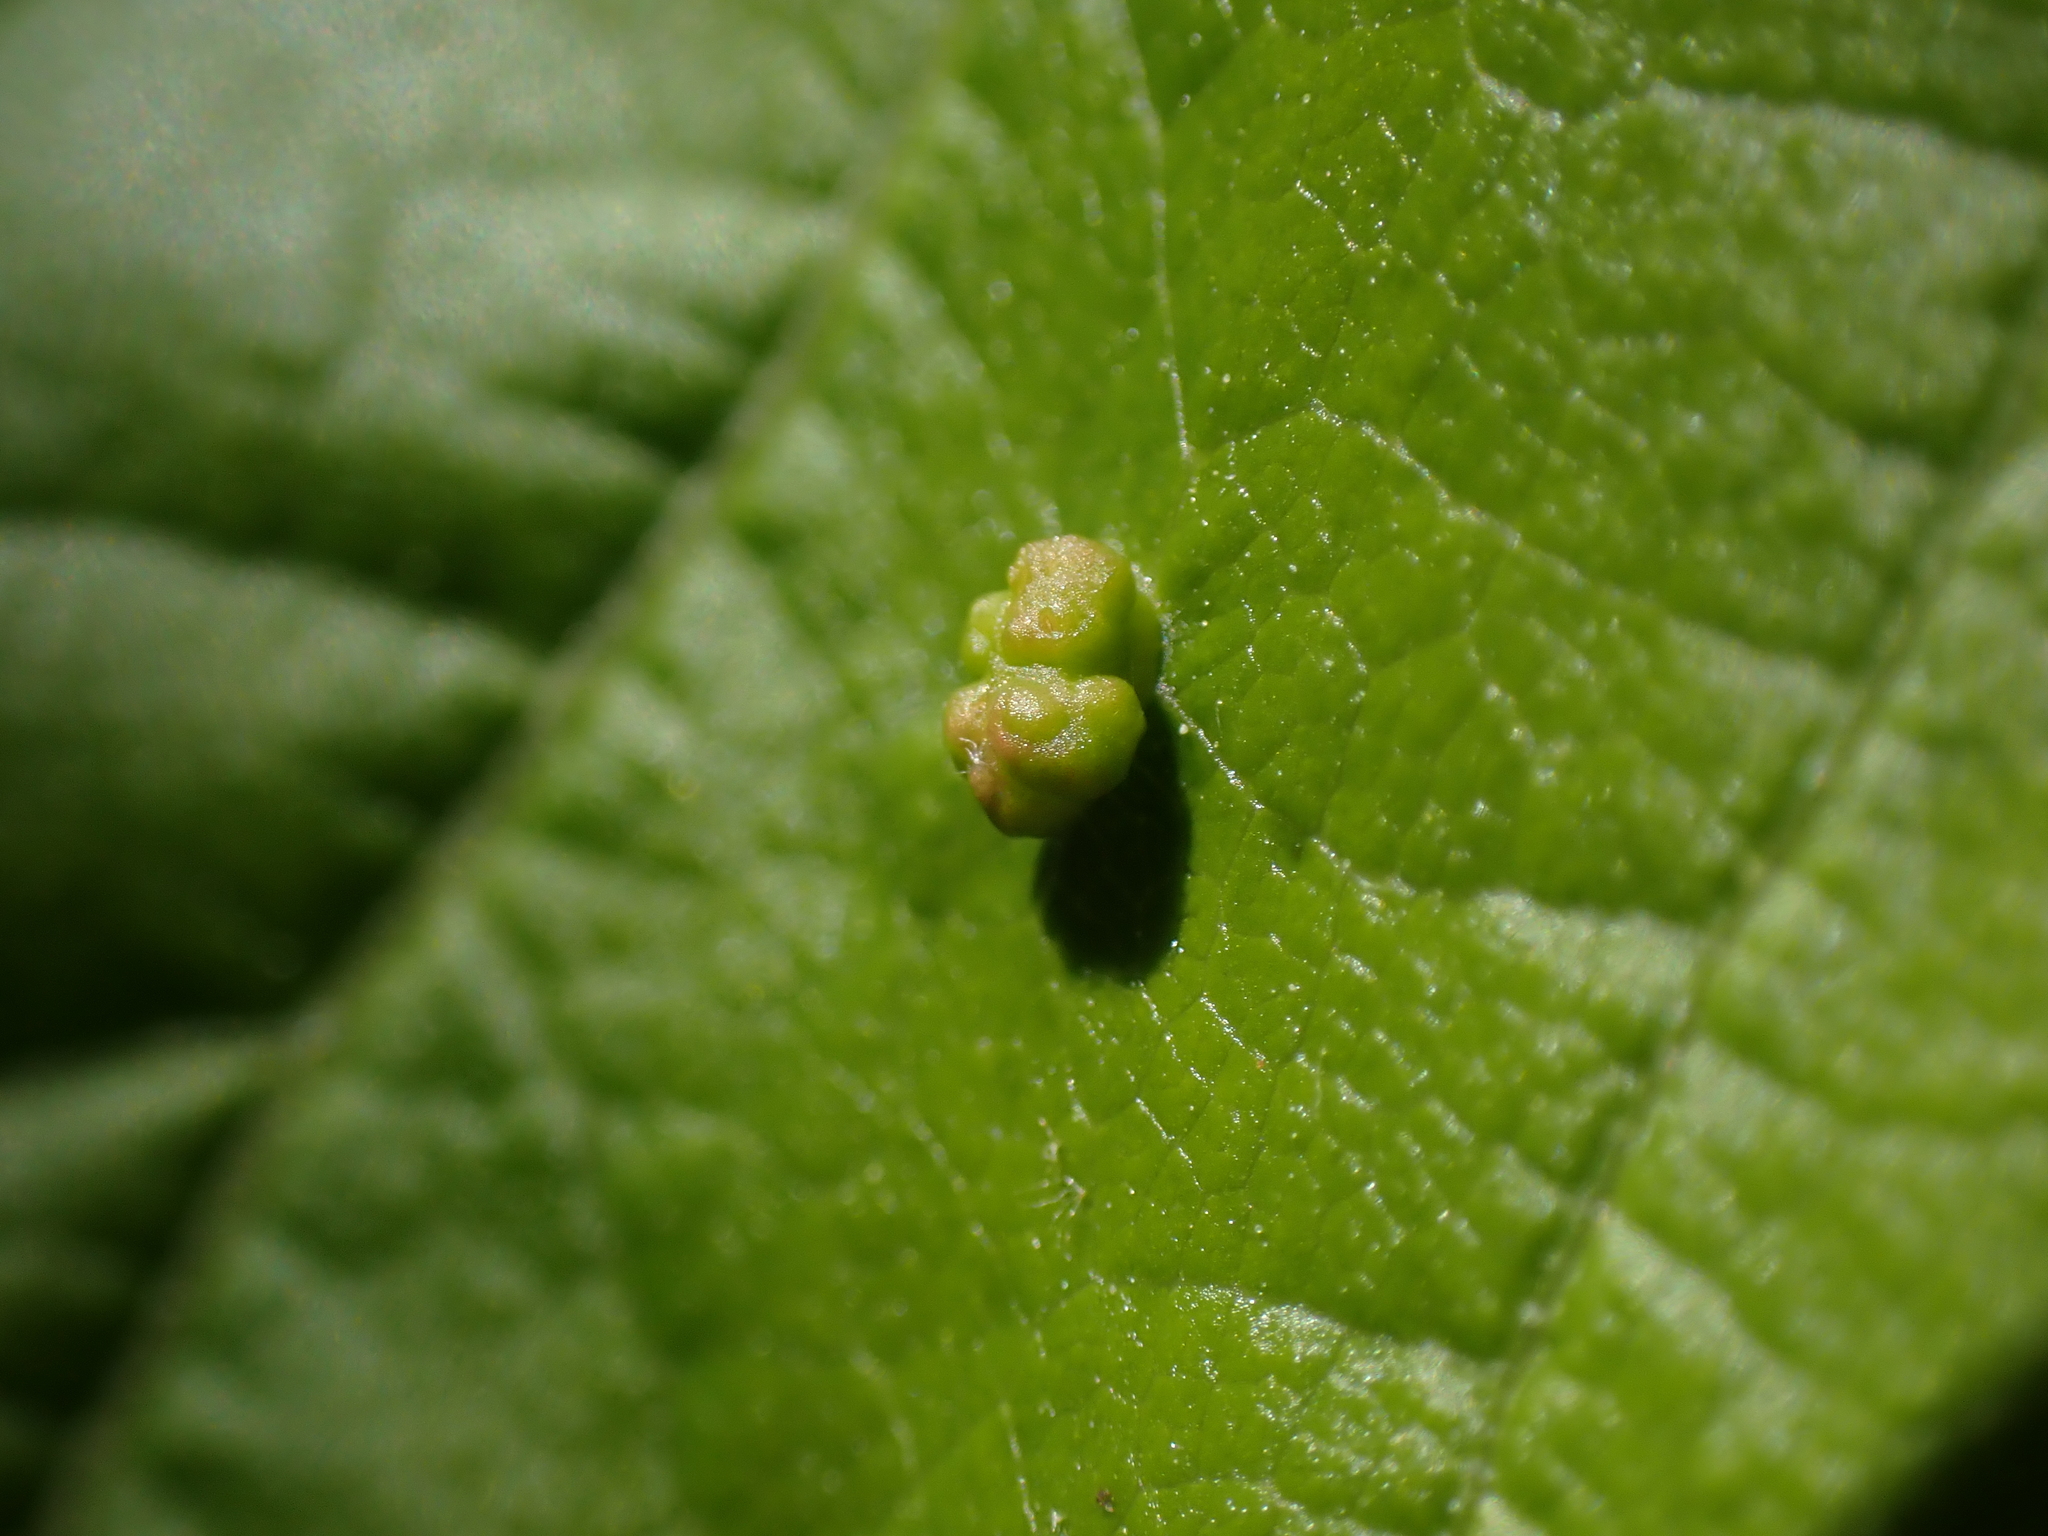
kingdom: Animalia
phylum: Arthropoda
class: Arachnida
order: Trombidiformes
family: Eriophyidae
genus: Aceria
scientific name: Aceria
